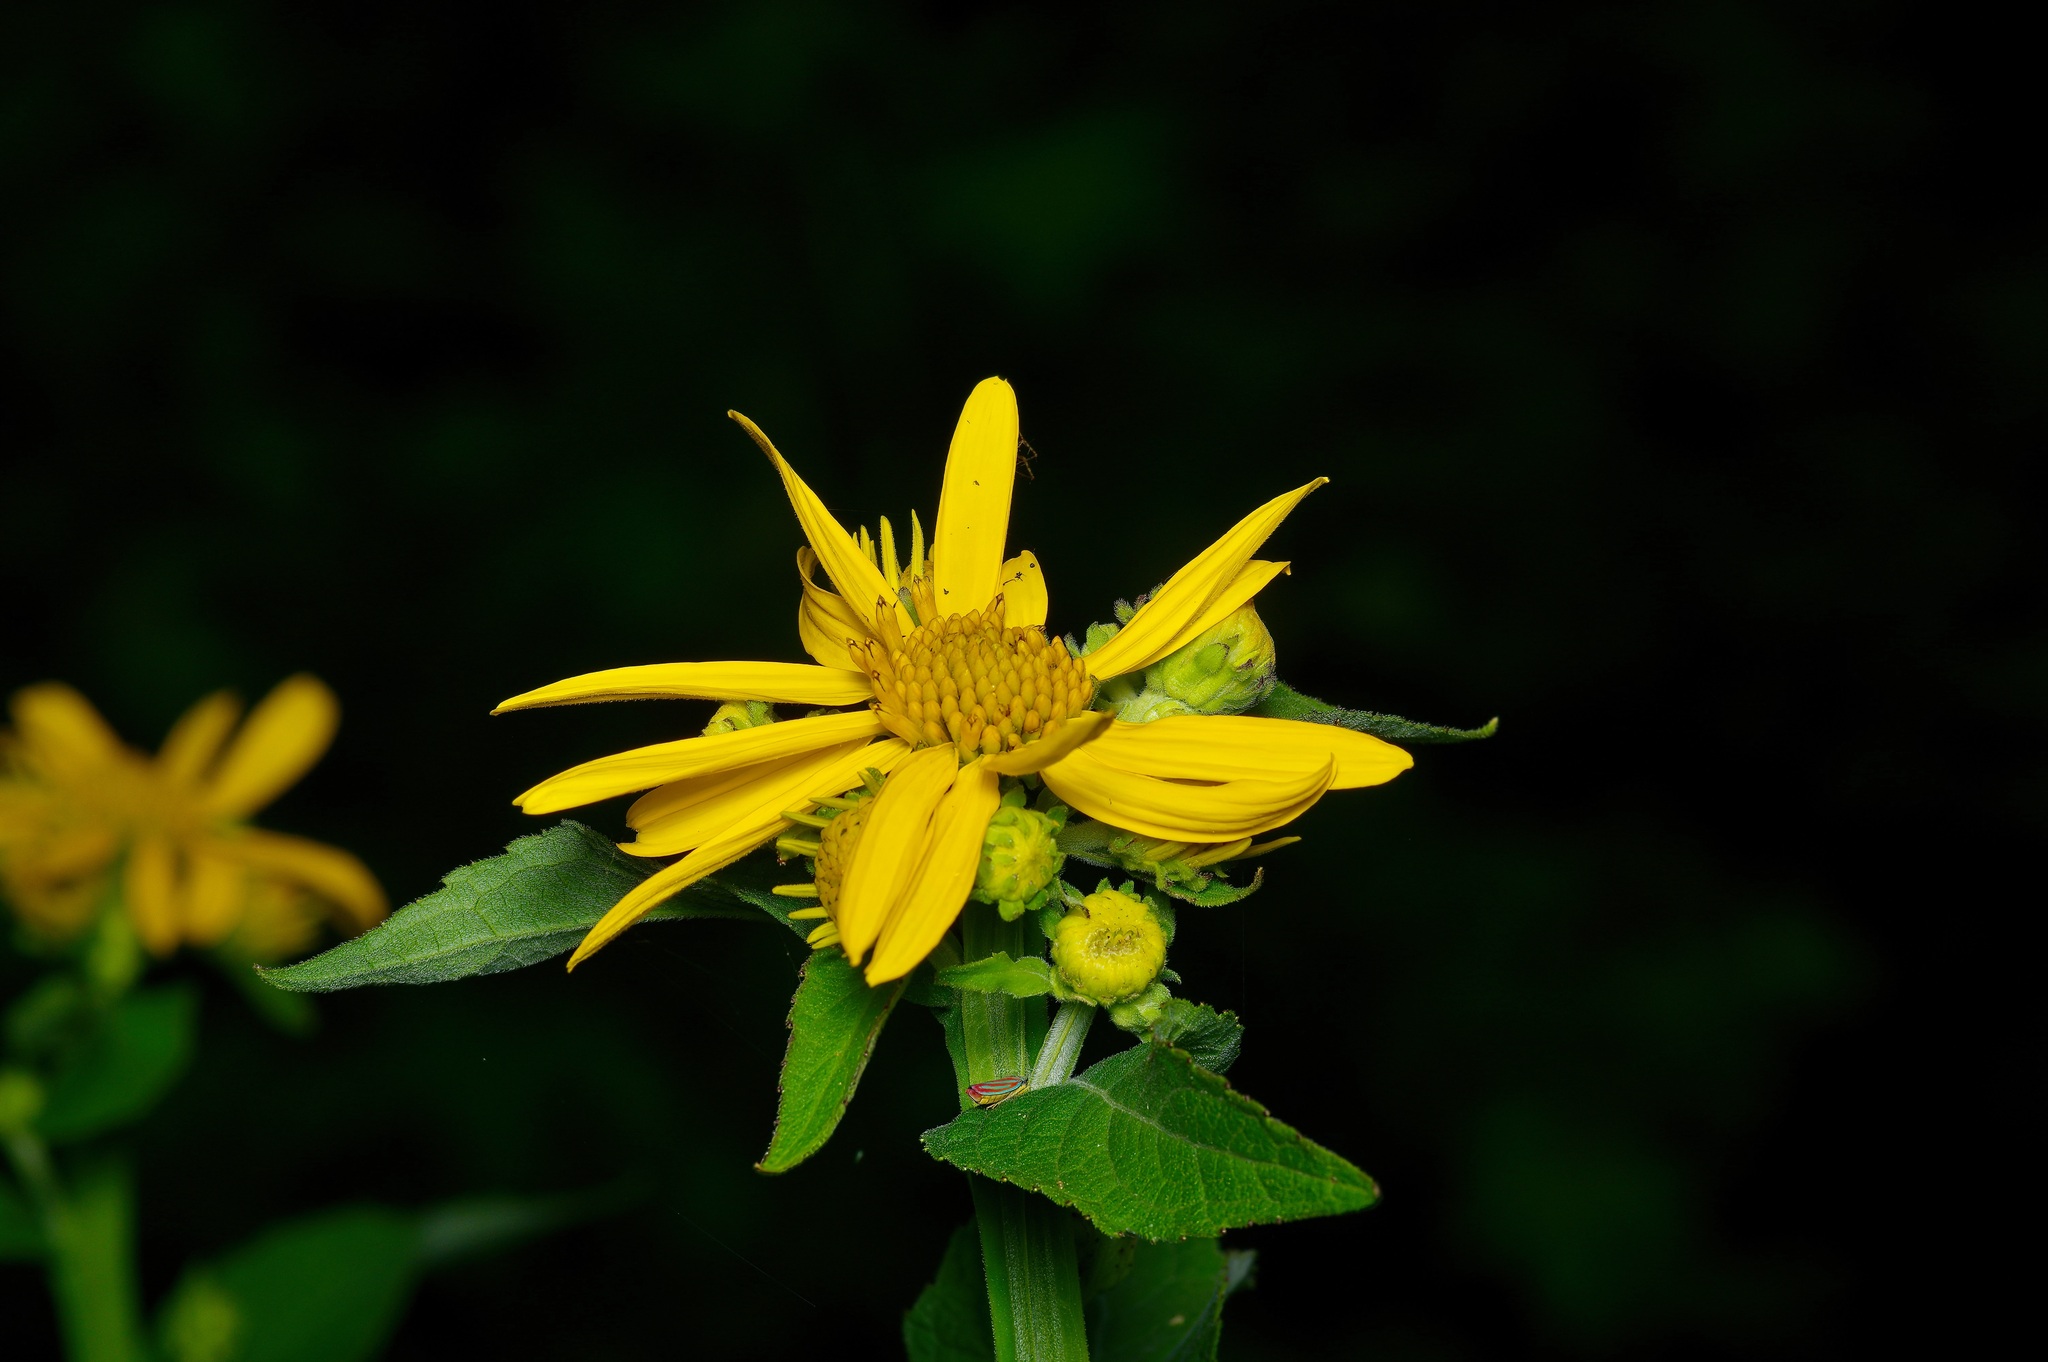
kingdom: Plantae
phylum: Tracheophyta
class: Magnoliopsida
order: Asterales
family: Asteraceae
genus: Verbesina
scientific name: Verbesina helianthoides
